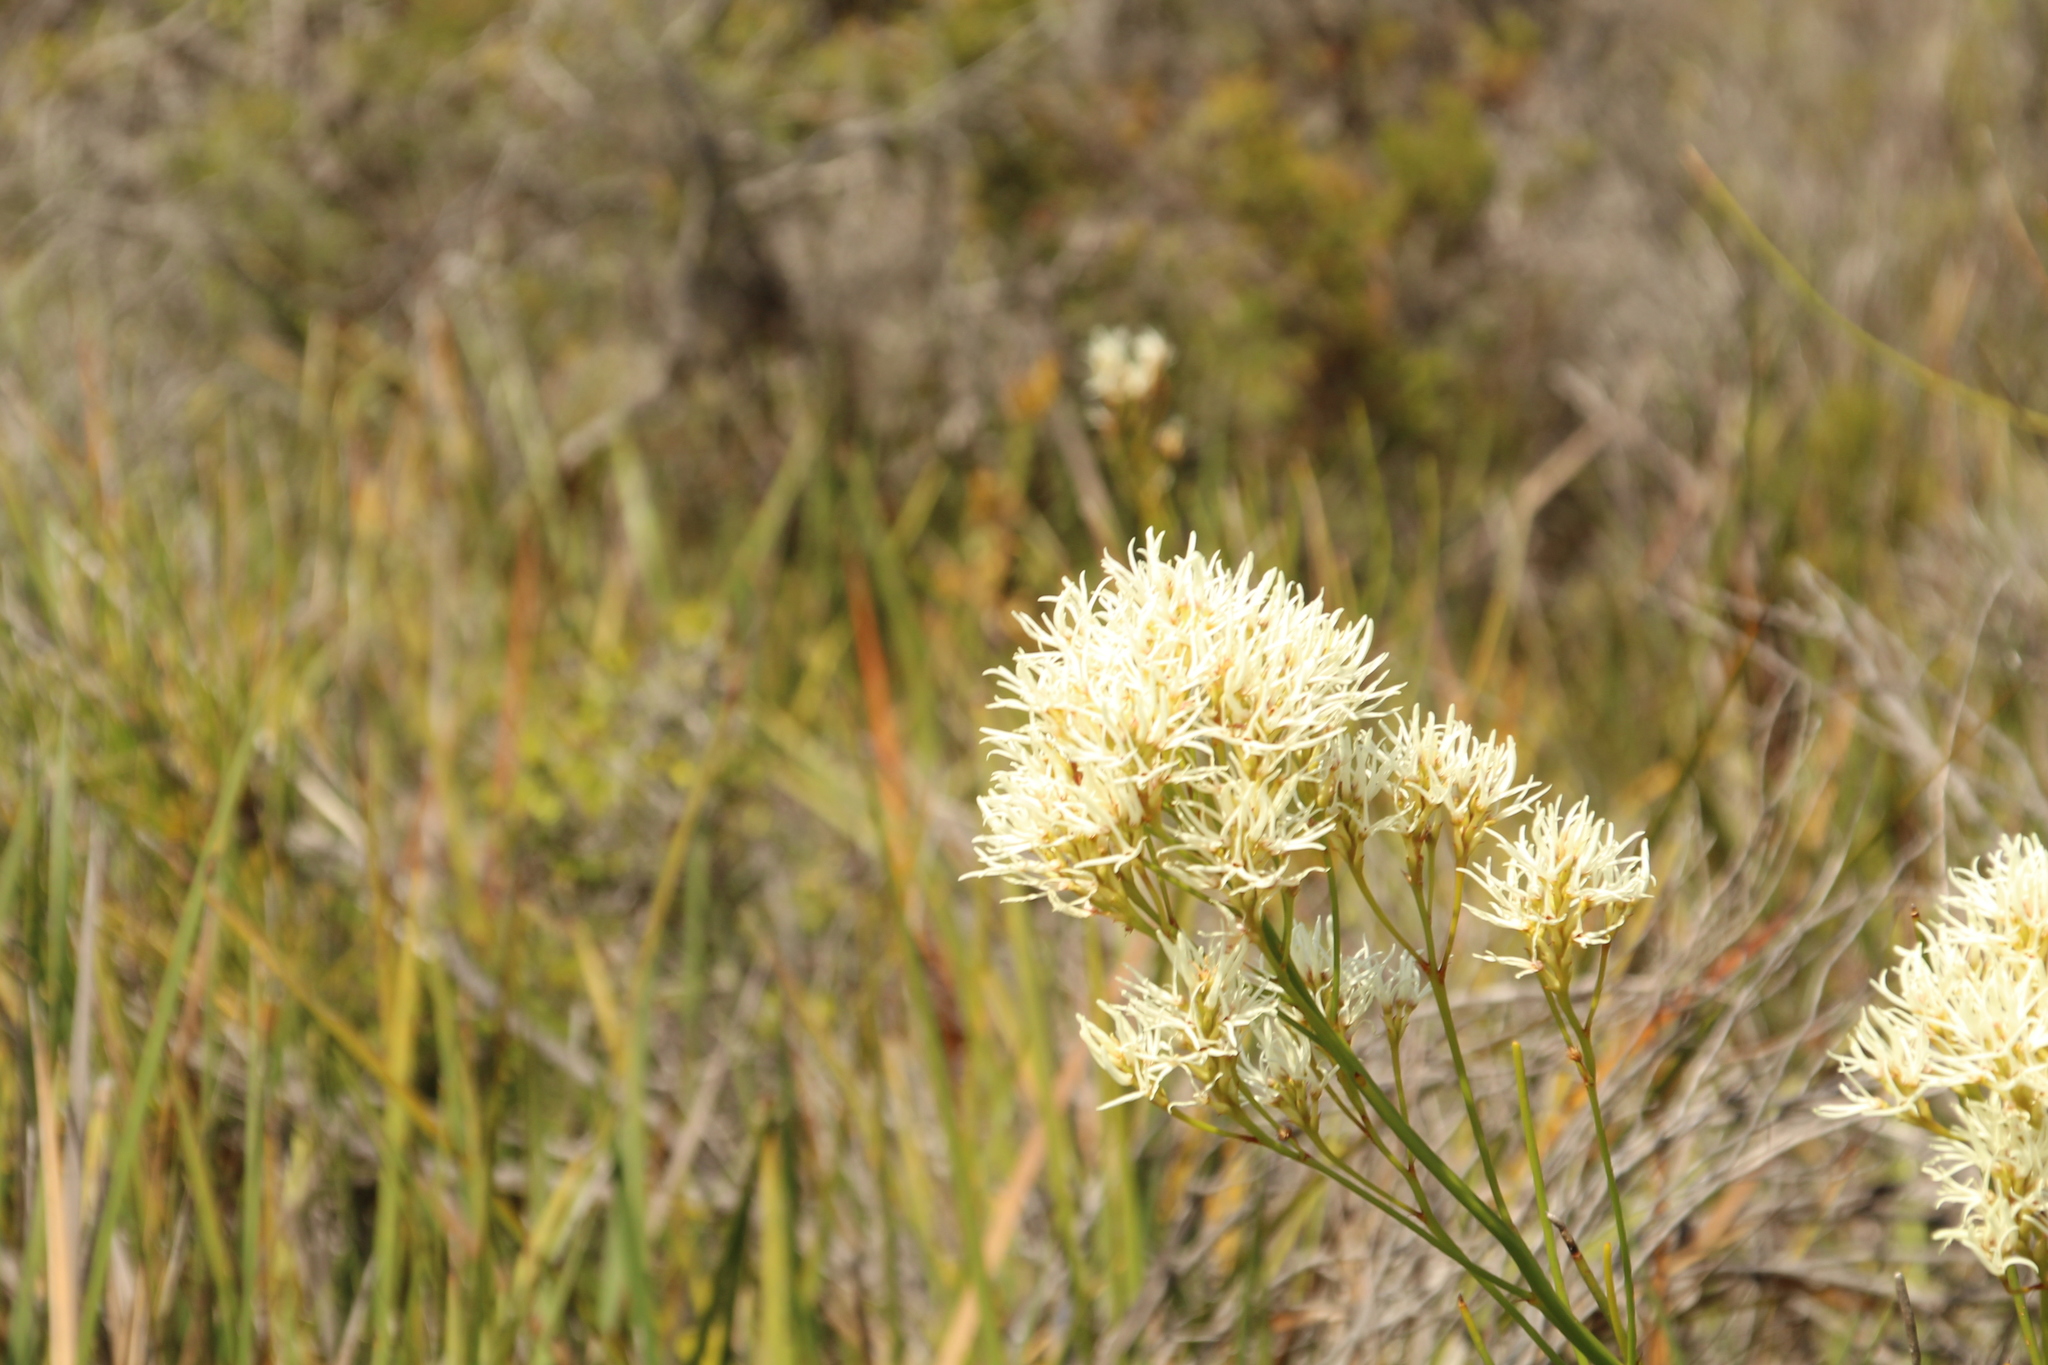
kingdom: Plantae
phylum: Tracheophyta
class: Magnoliopsida
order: Proteales
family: Proteaceae
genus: Conospermum
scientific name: Conospermum teretifolium
